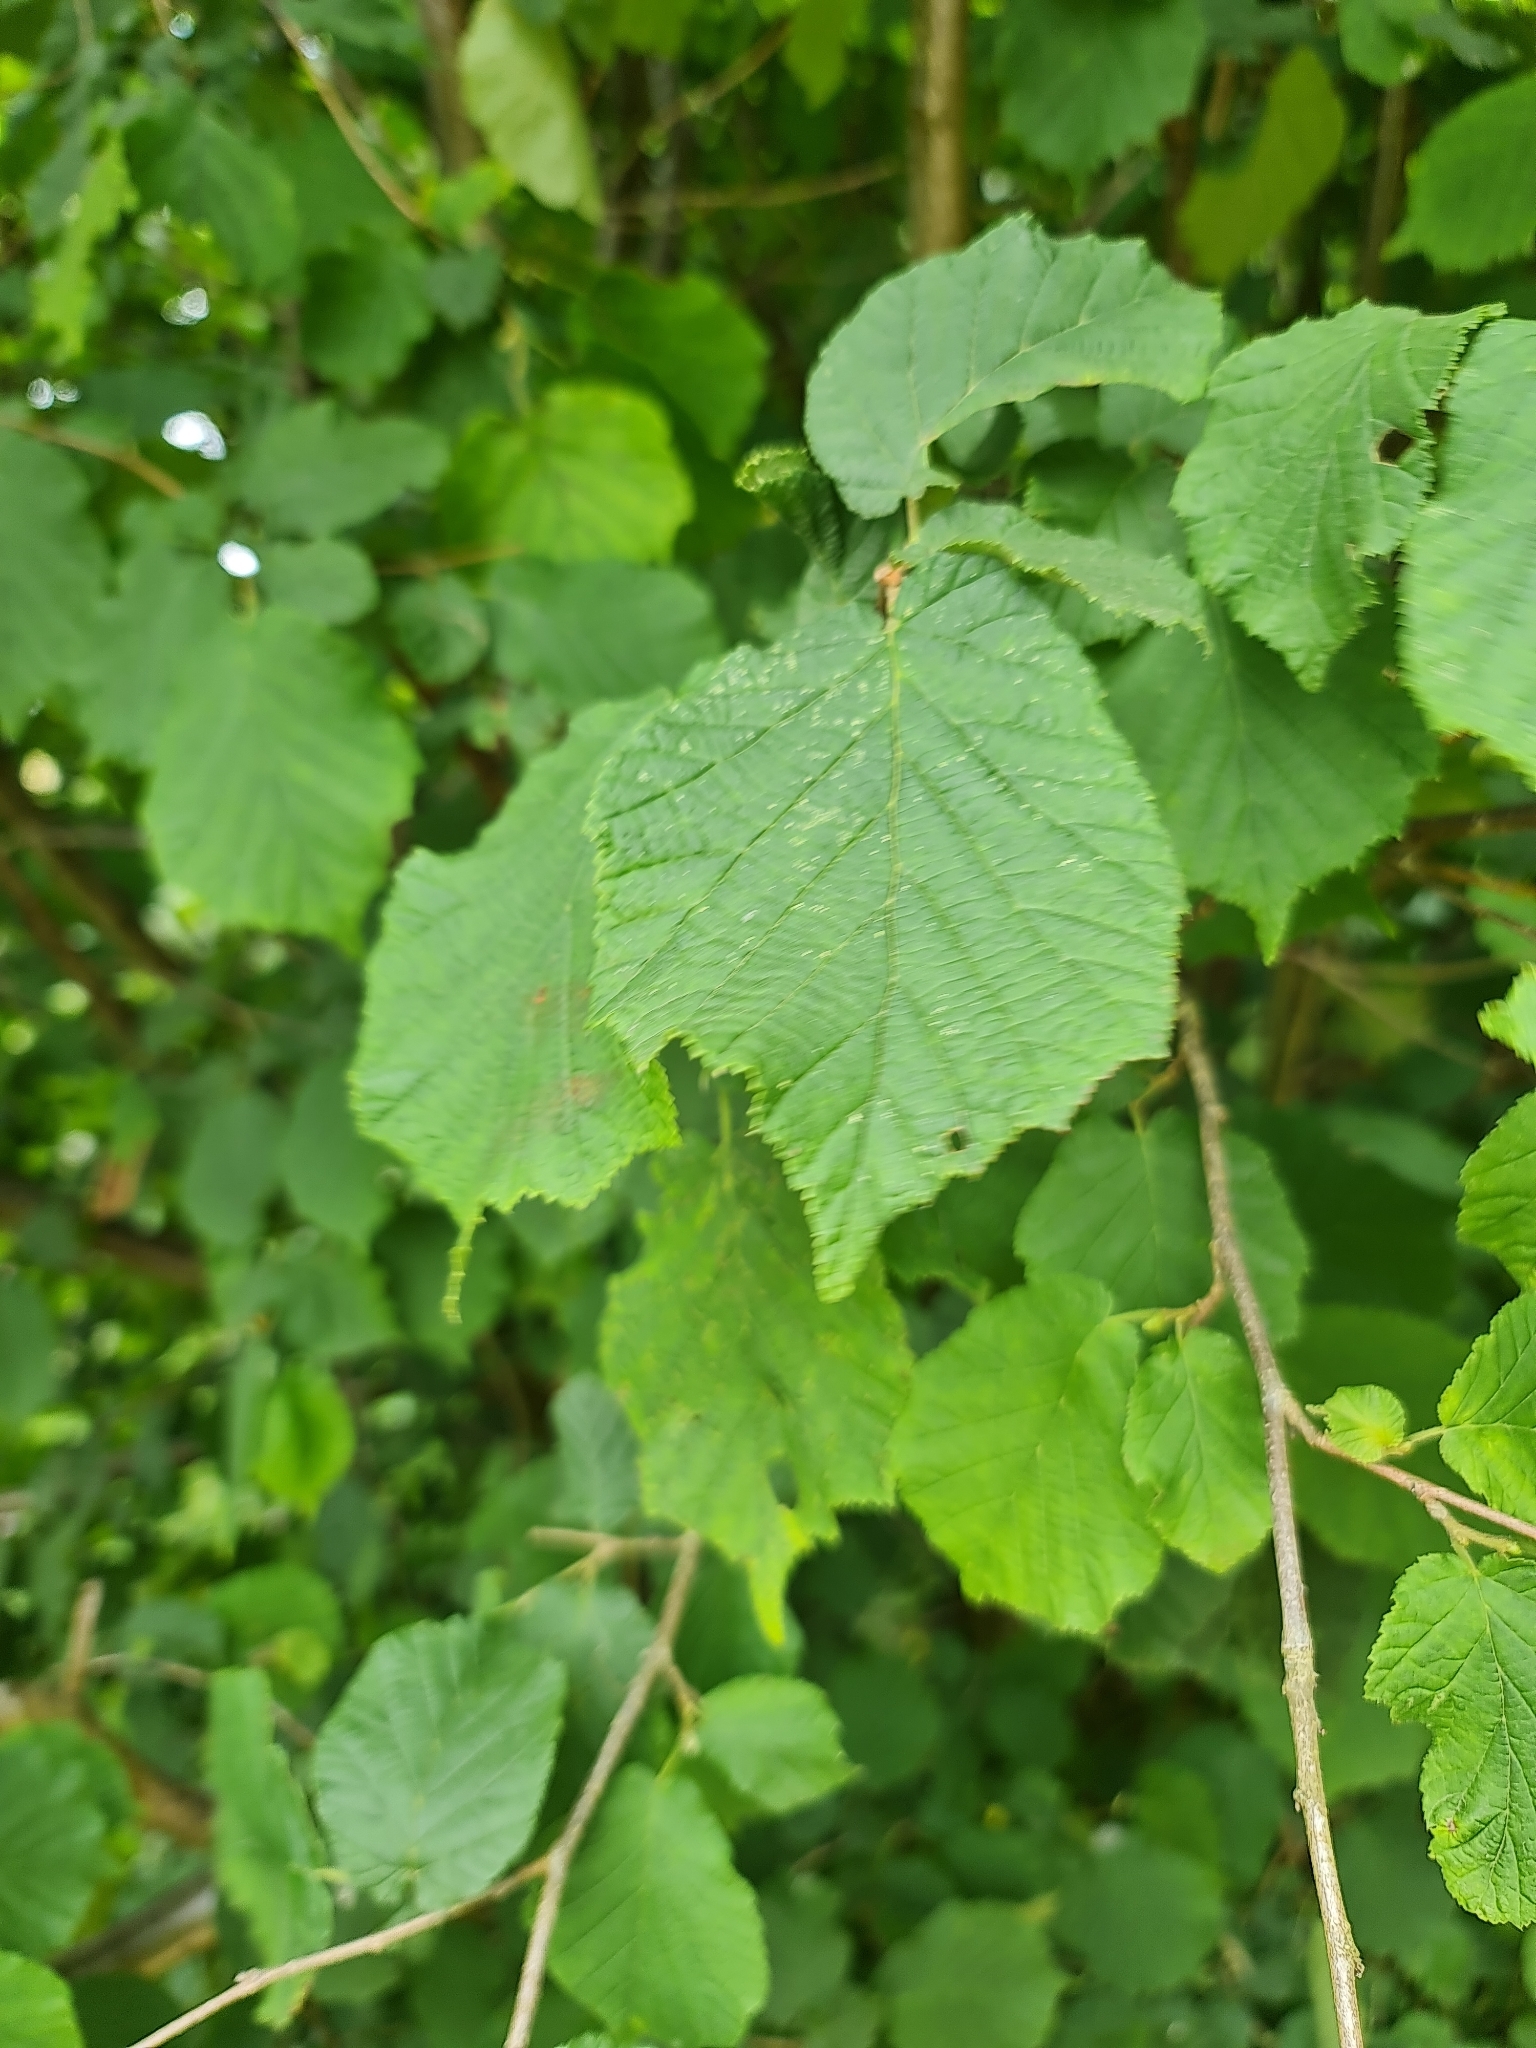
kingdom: Plantae
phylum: Tracheophyta
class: Magnoliopsida
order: Fagales
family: Betulaceae
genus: Corylus
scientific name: Corylus avellana
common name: European hazel
